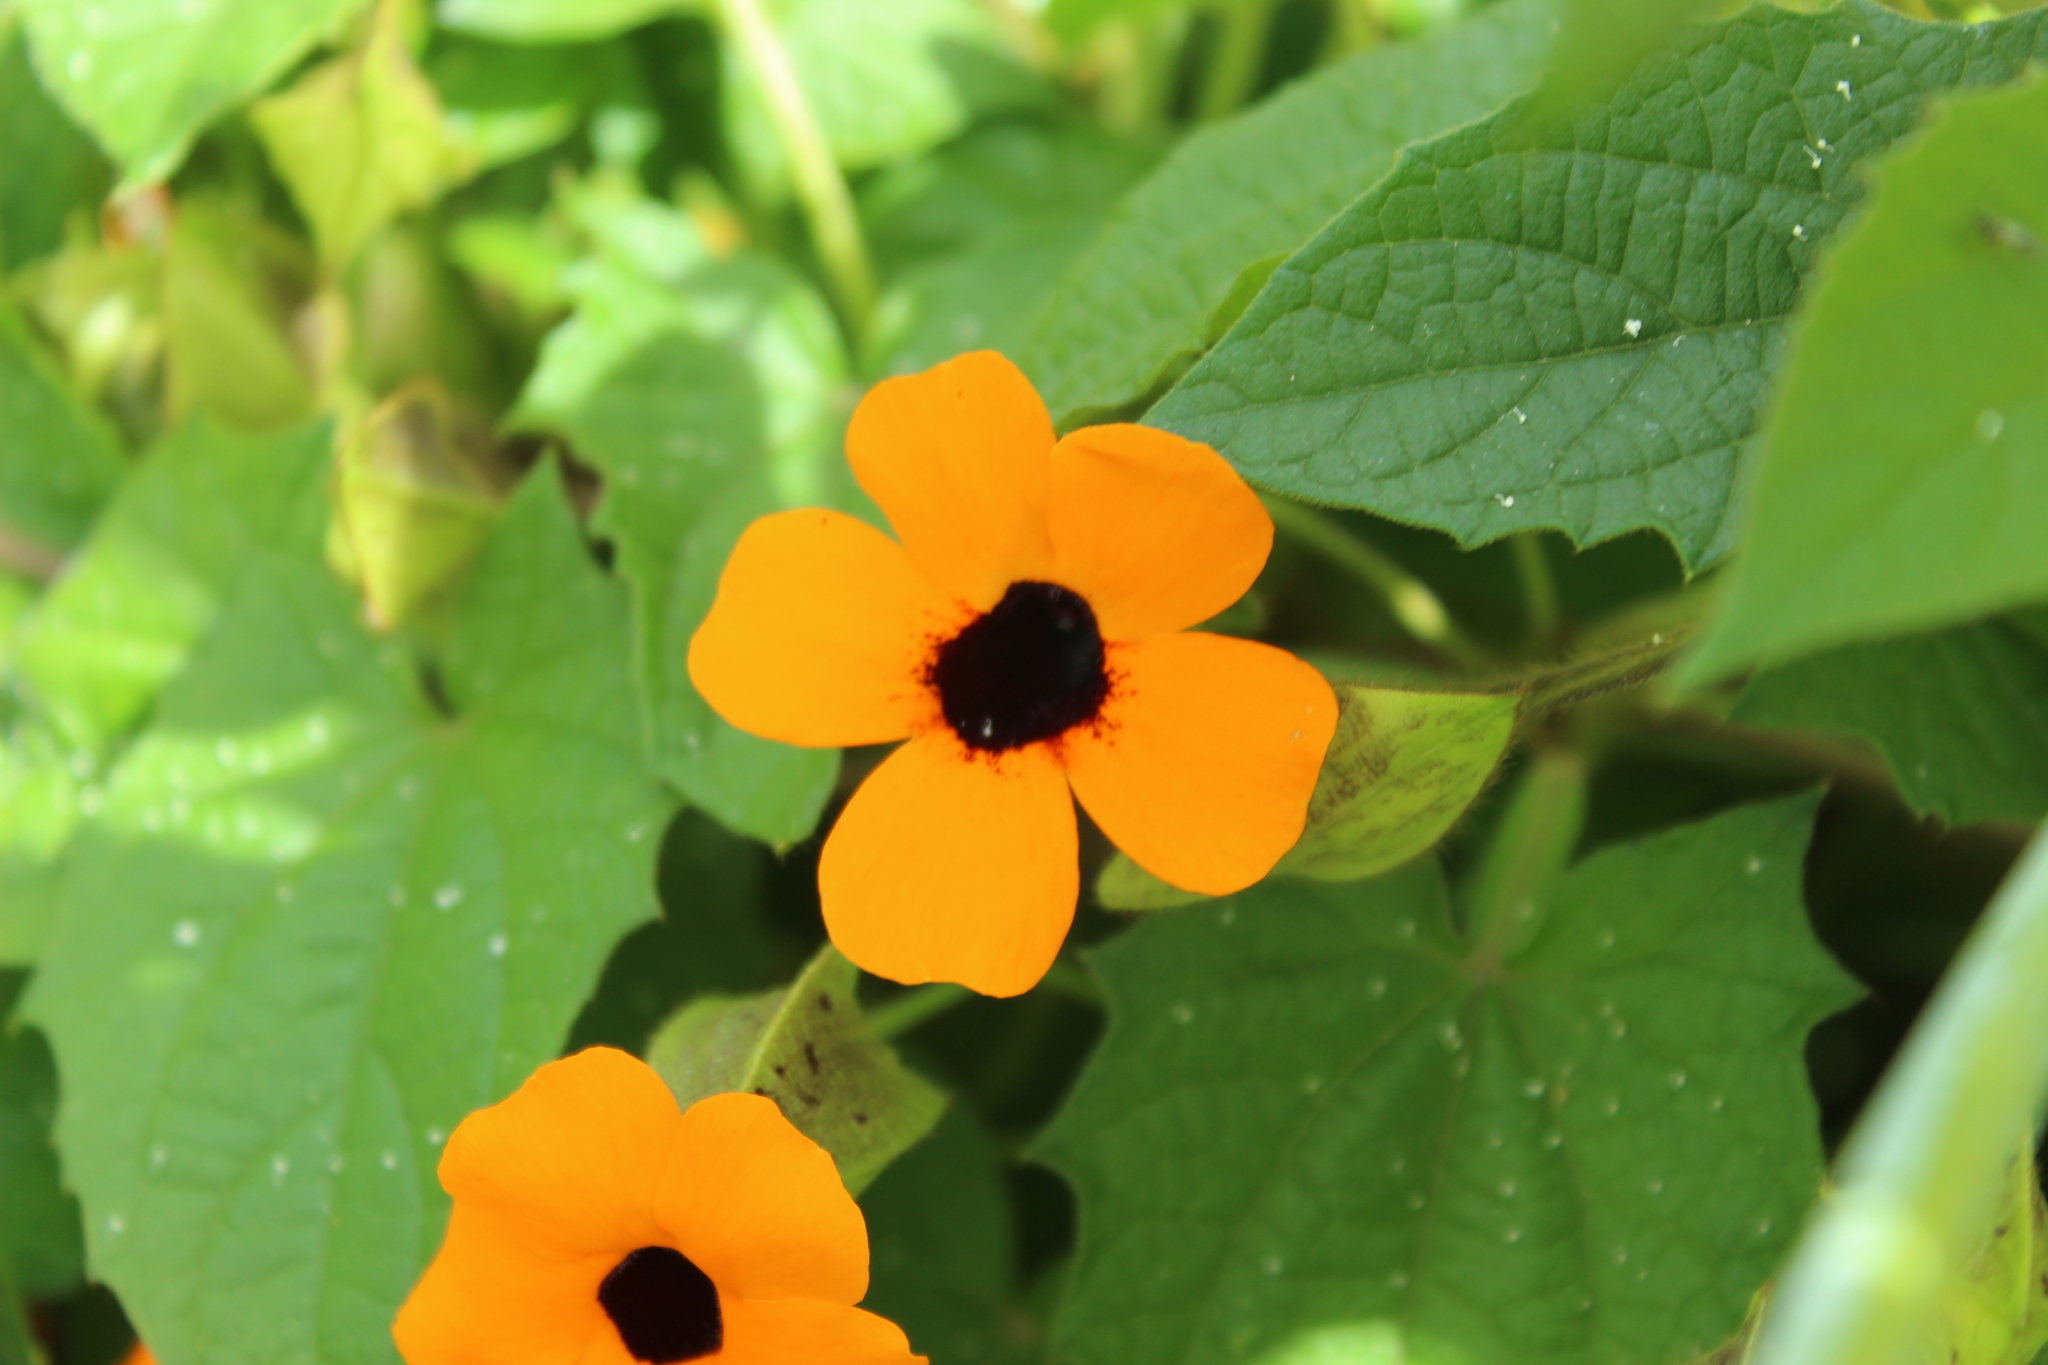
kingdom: Plantae
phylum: Tracheophyta
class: Magnoliopsida
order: Lamiales
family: Acanthaceae
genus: Thunbergia
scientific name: Thunbergia alata
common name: Blackeyed susan vine
